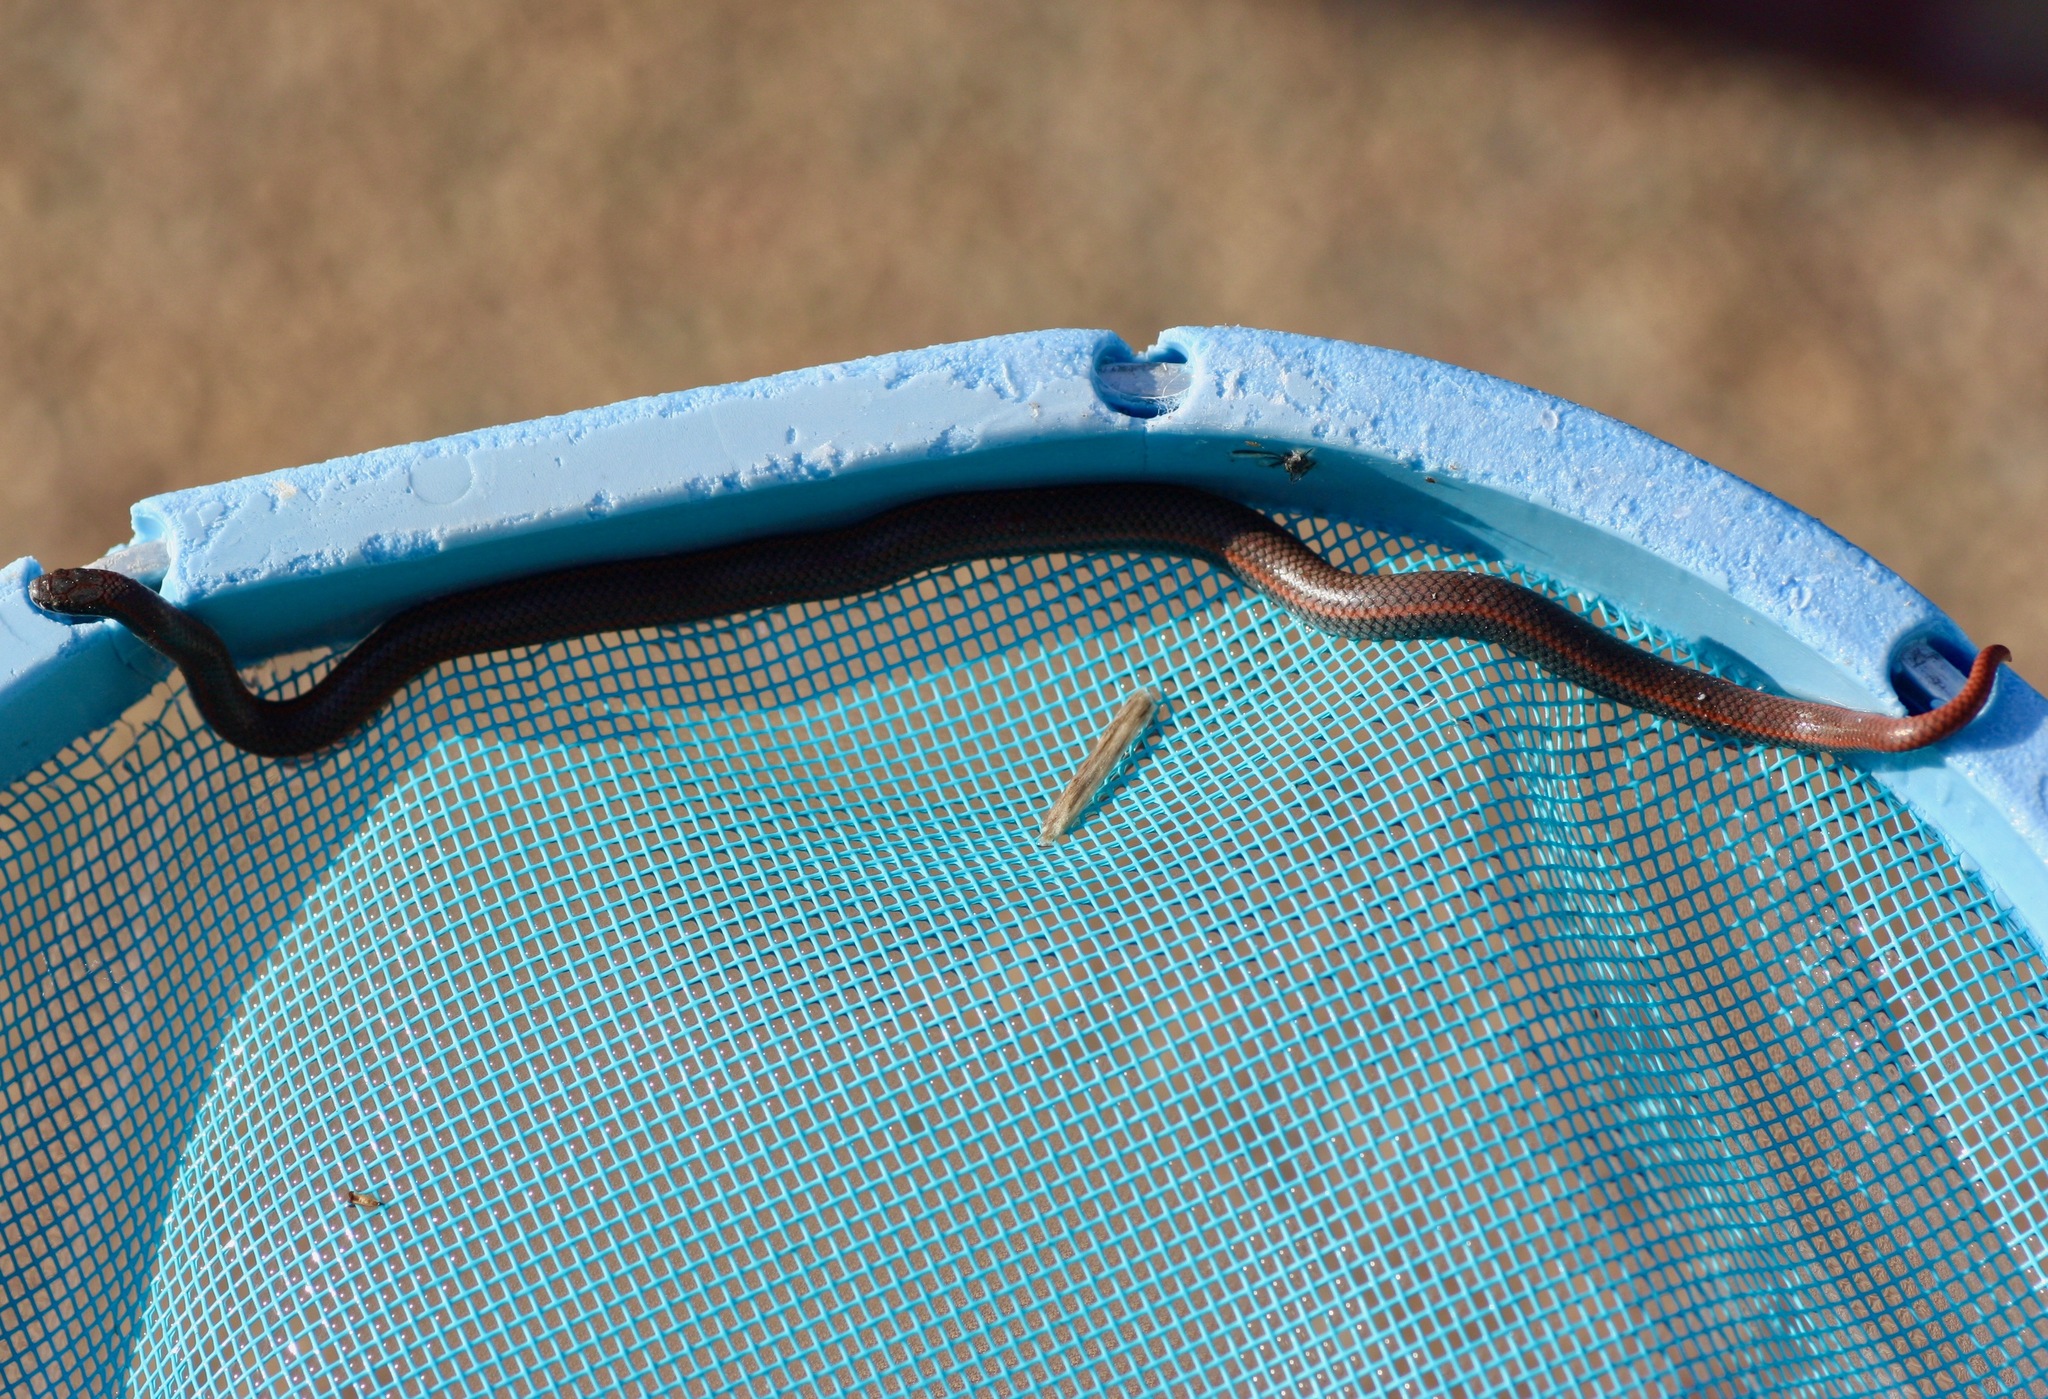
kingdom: Animalia
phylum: Chordata
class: Squamata
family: Colubridae
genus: Contia
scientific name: Contia tenuis
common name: Sharptail snake
